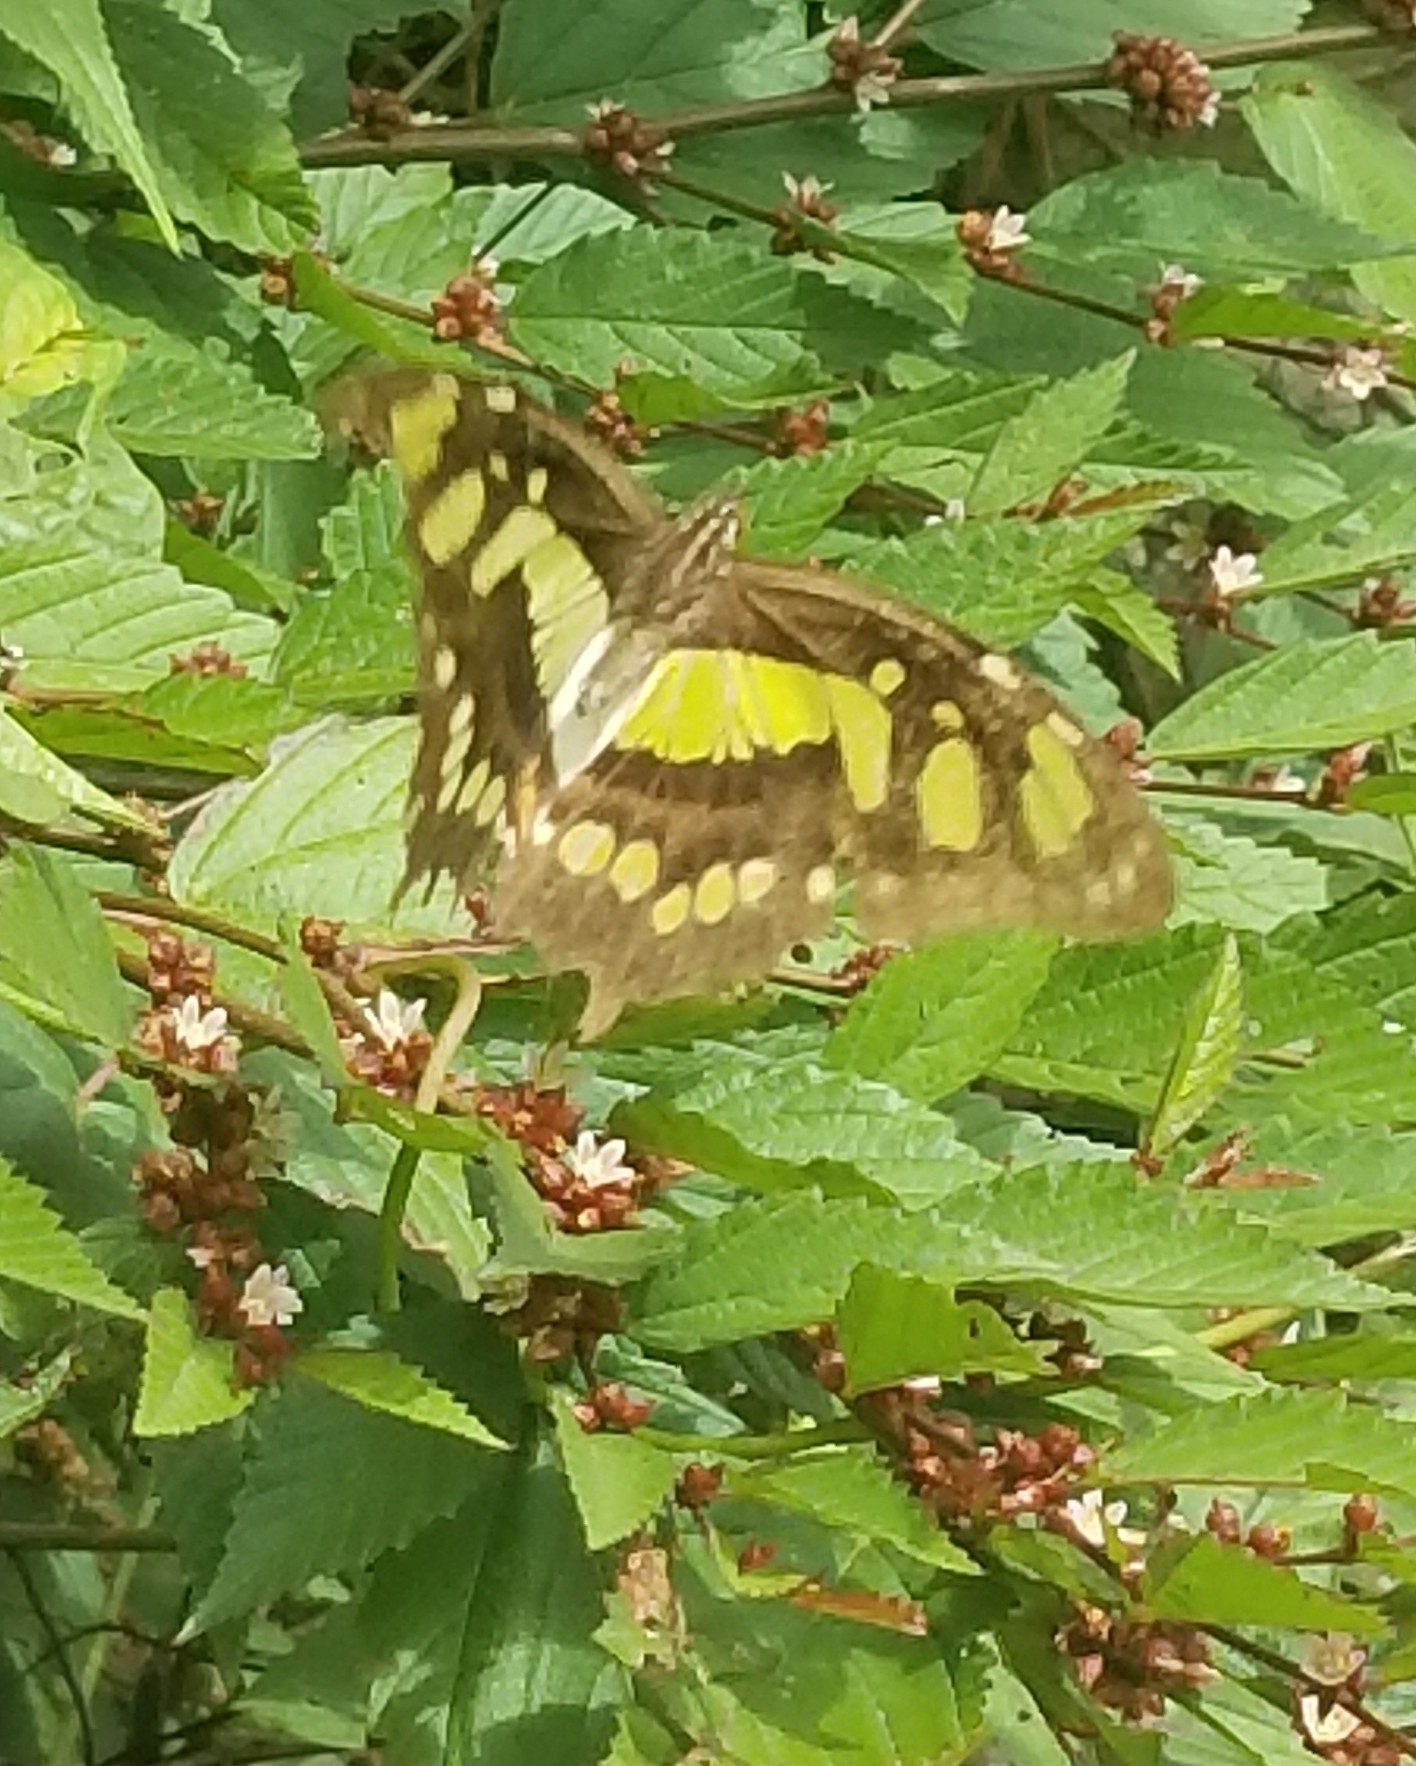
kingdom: Animalia
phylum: Arthropoda
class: Insecta
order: Lepidoptera
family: Nymphalidae
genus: Siproeta
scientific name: Siproeta stelenes
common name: Malachite
